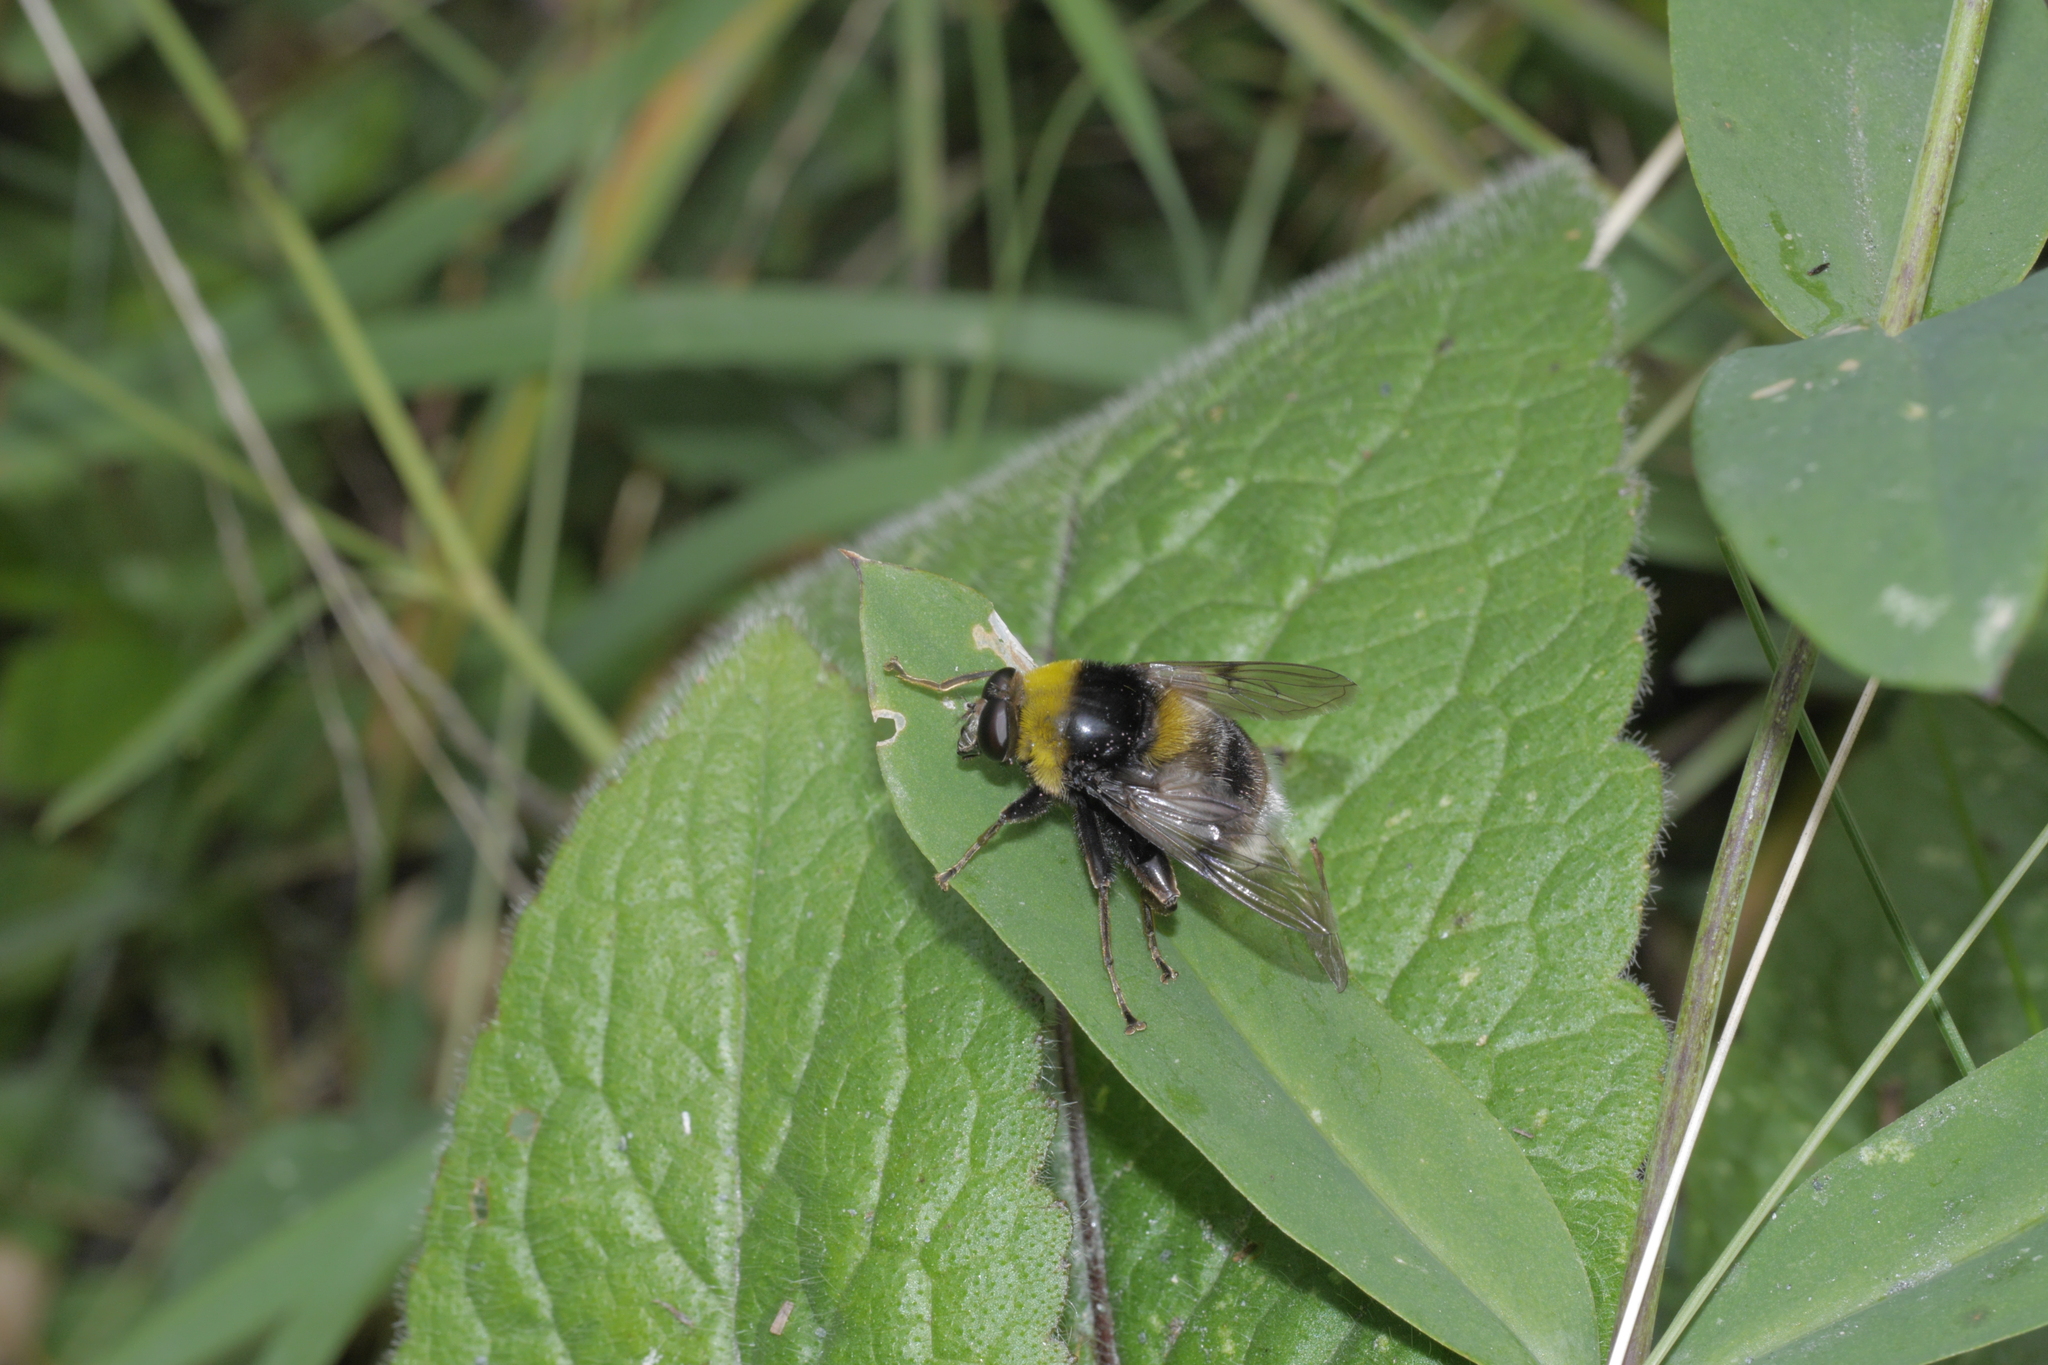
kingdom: Animalia
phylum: Arthropoda
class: Insecta
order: Diptera
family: Syrphidae
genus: Sericomyia
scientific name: Sericomyia bombiformis
